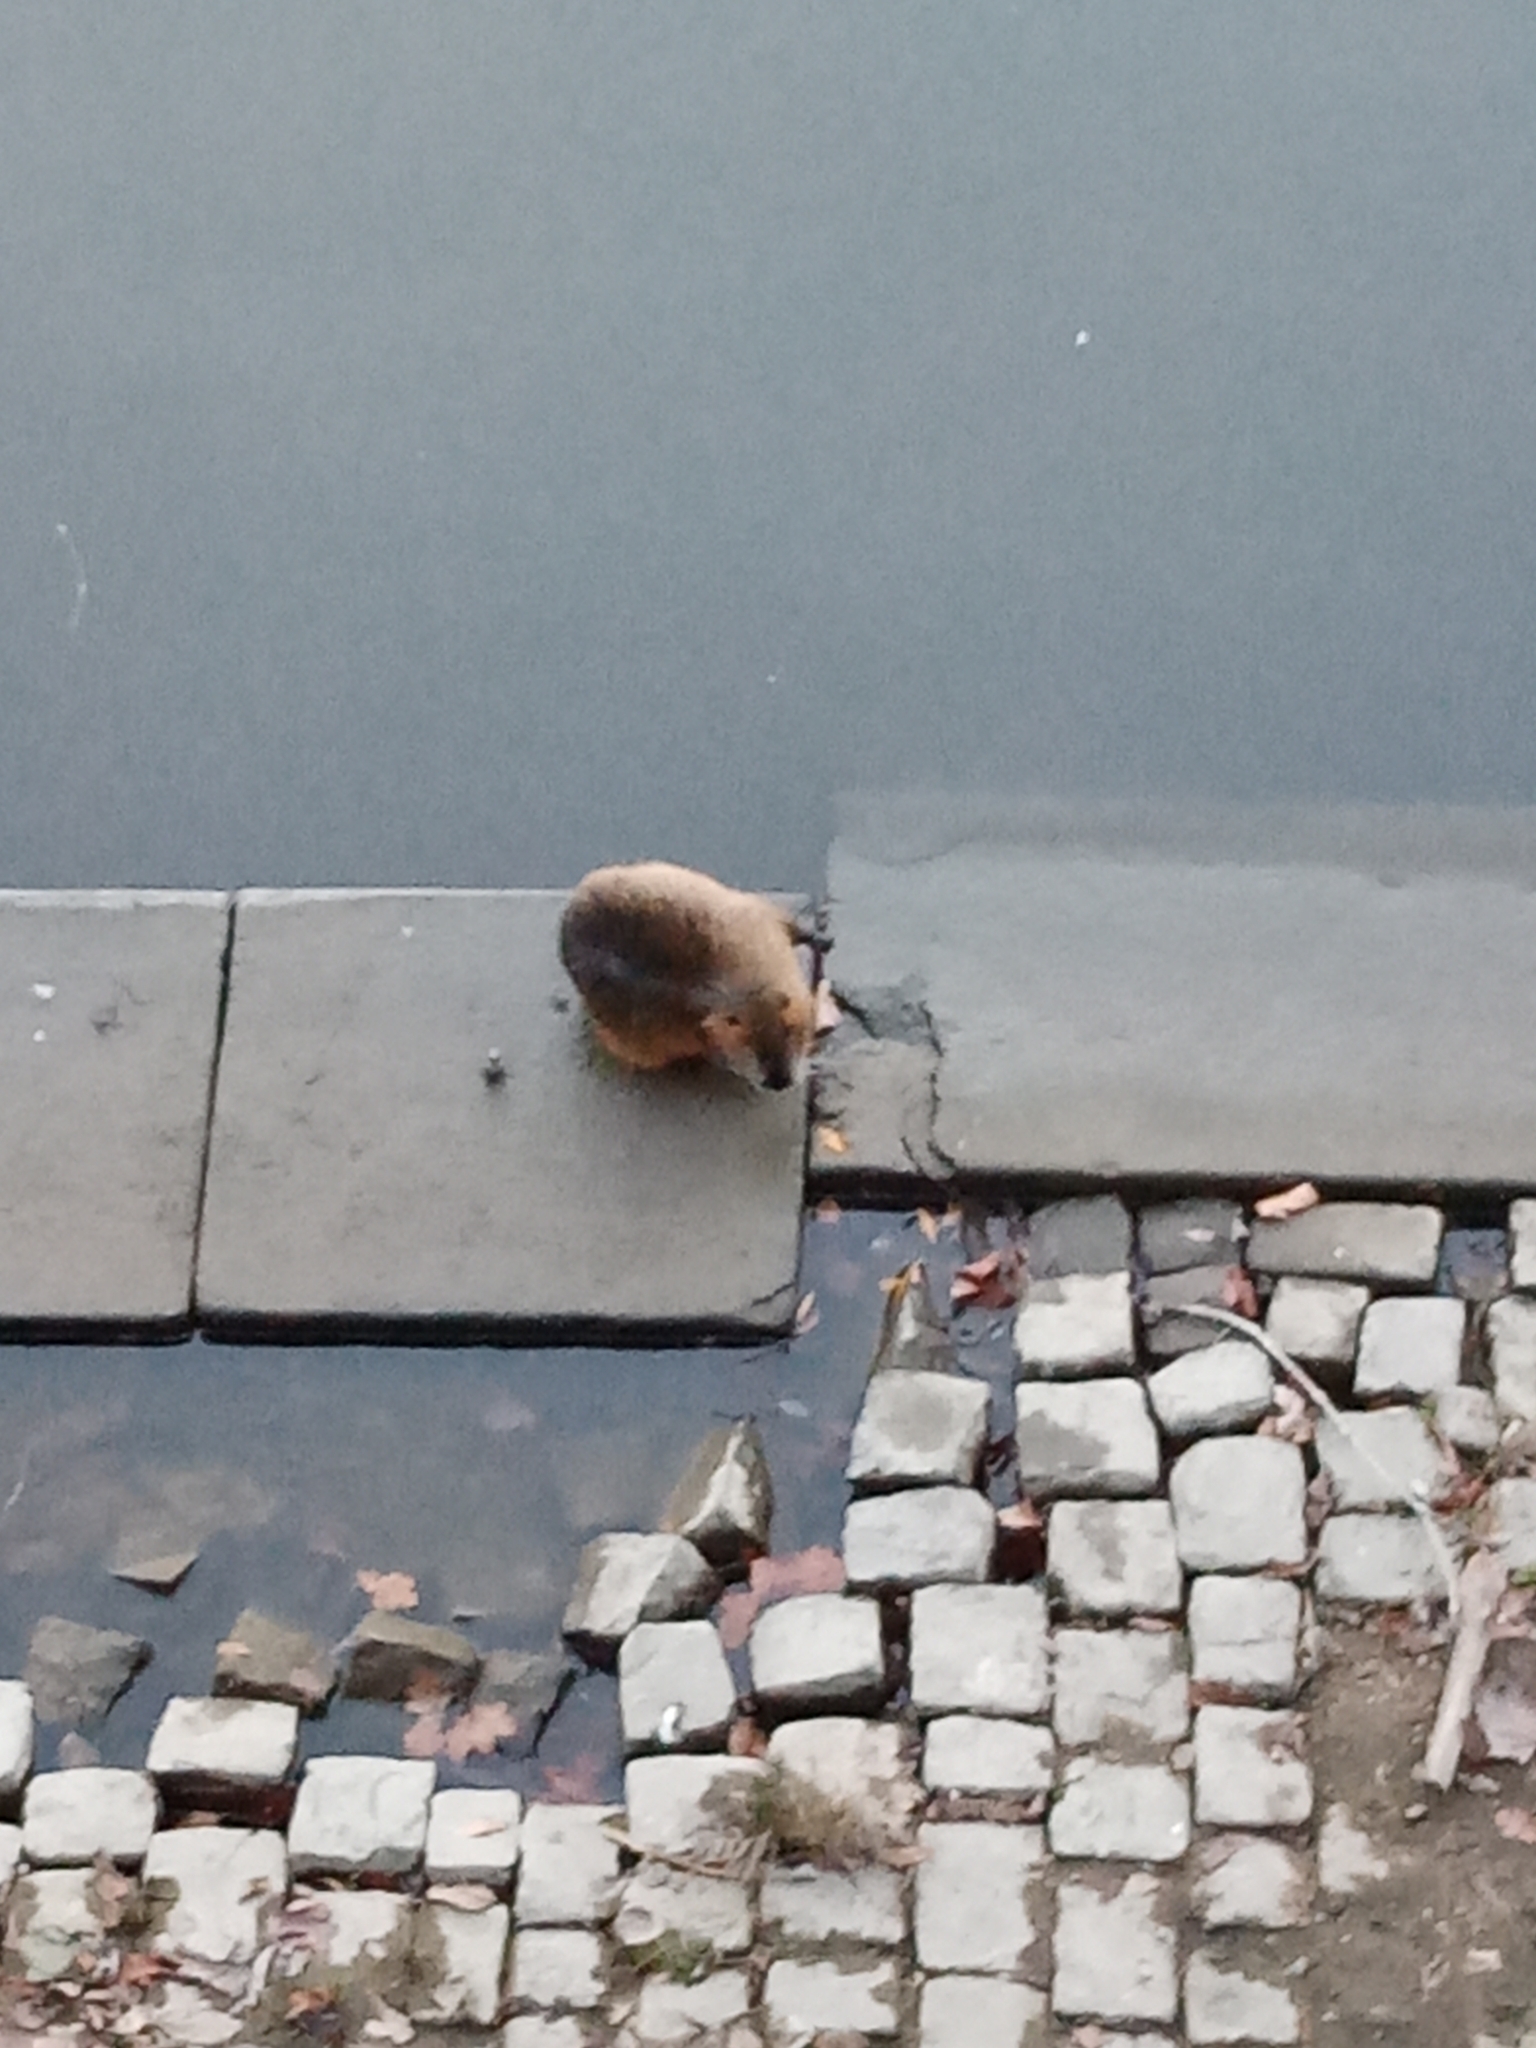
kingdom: Animalia
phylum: Chordata
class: Mammalia
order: Rodentia
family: Myocastoridae
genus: Myocastor
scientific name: Myocastor coypus
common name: Coypu
